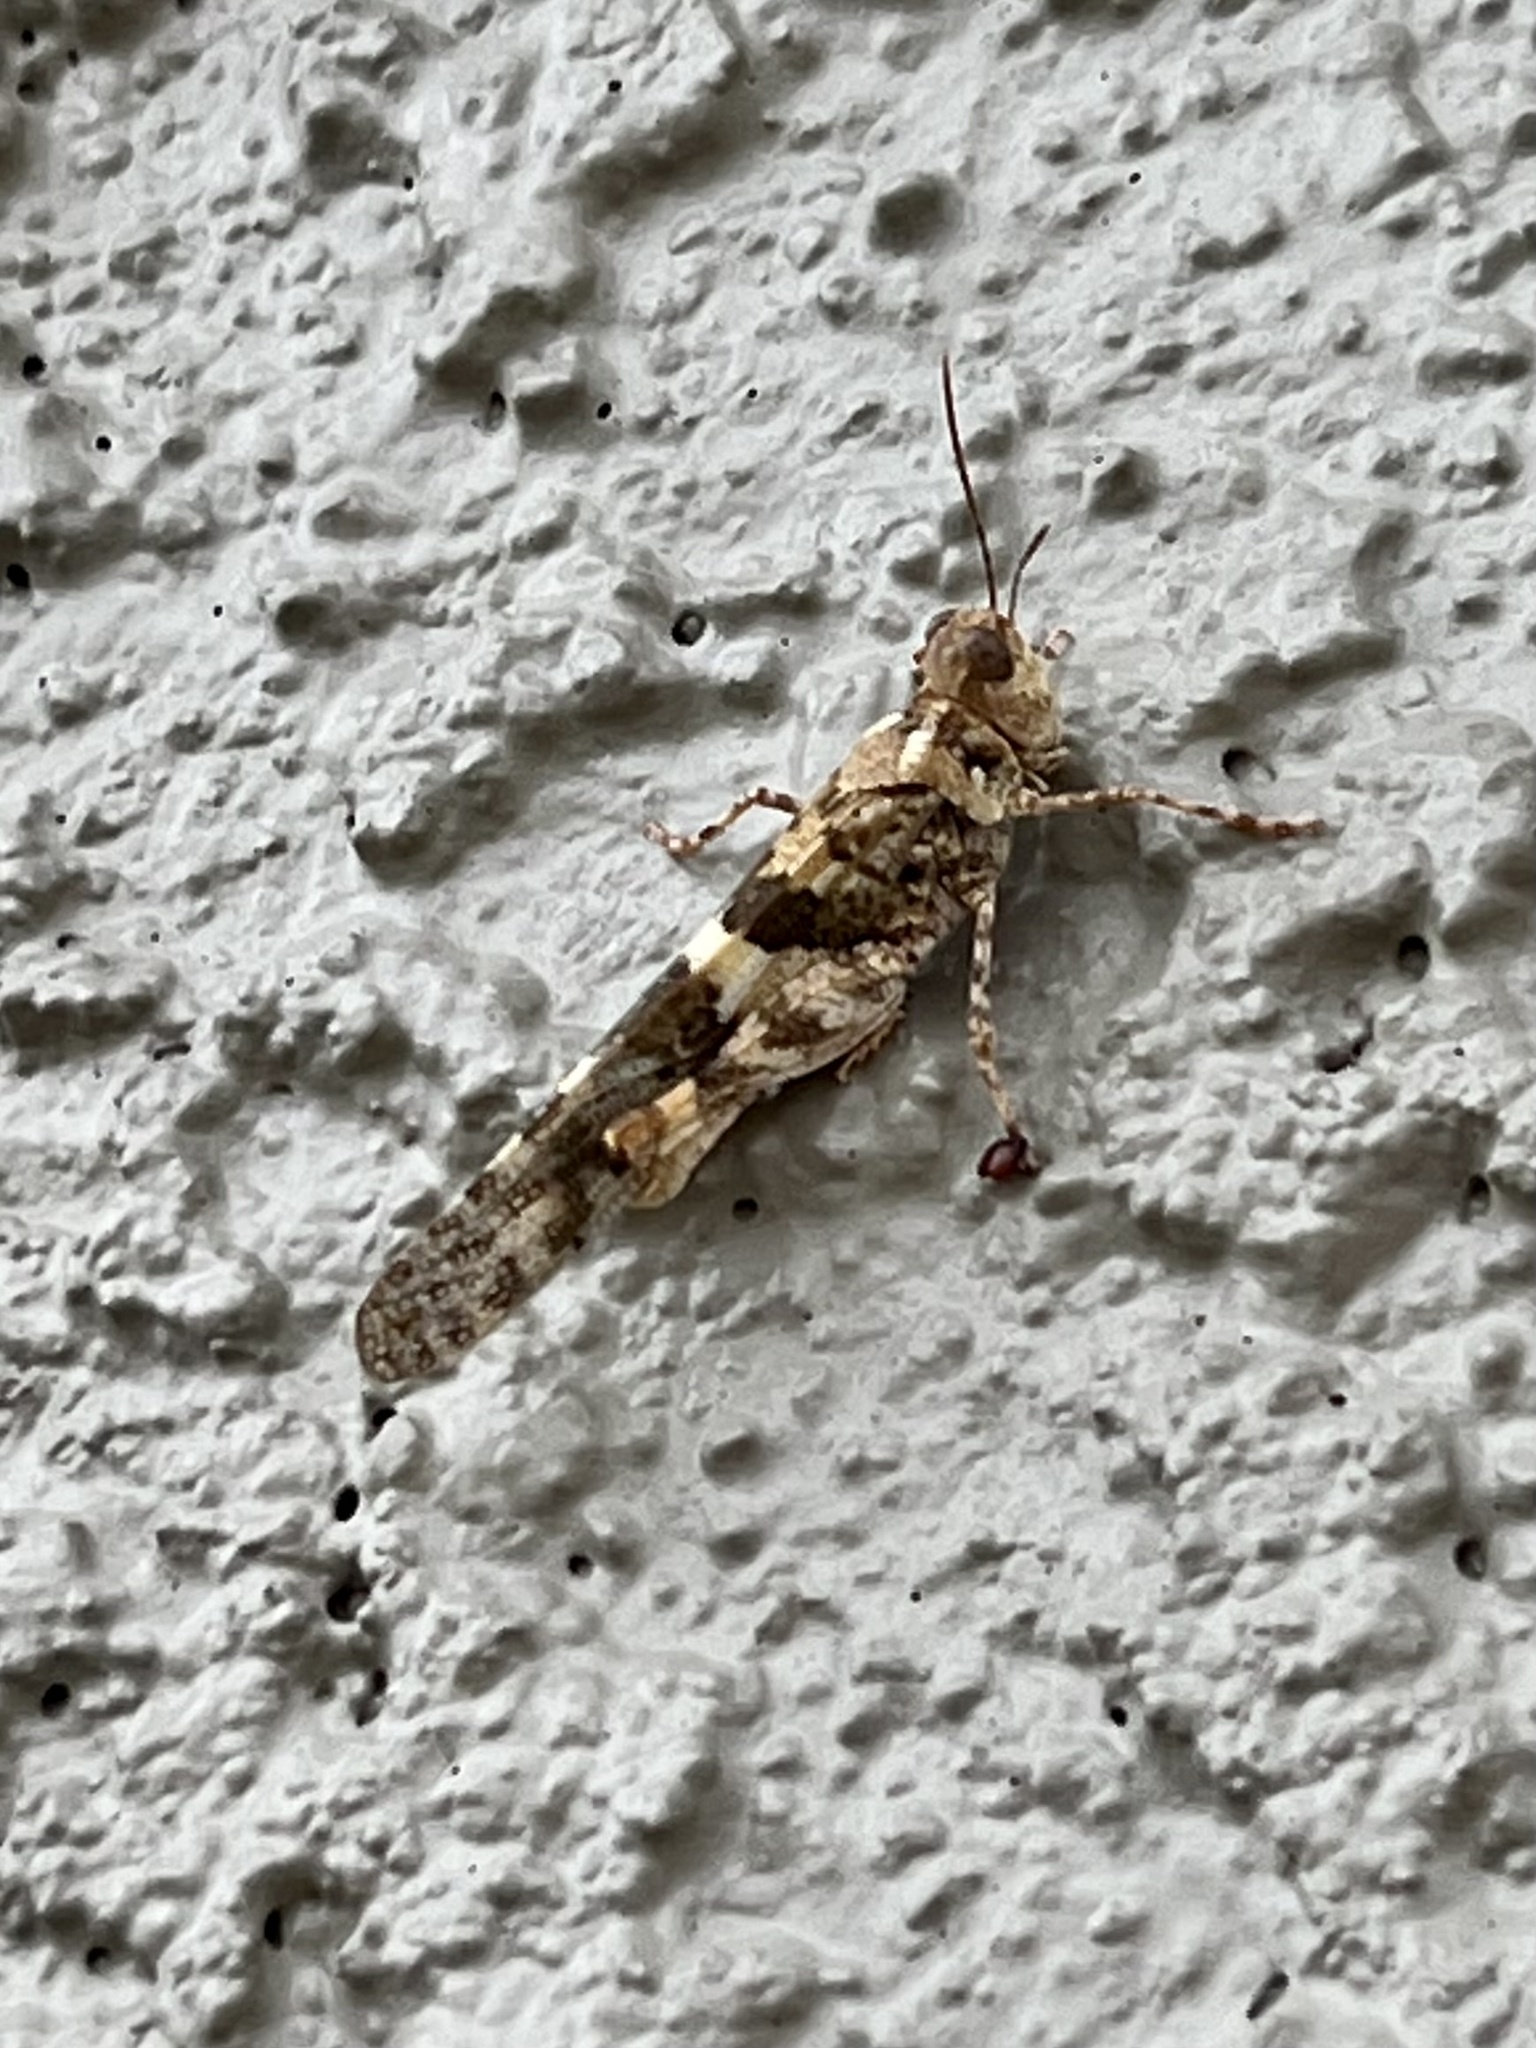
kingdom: Animalia
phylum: Arthropoda
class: Insecta
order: Orthoptera
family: Acrididae
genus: Trimerotropis
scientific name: Trimerotropis pallidipennis
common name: Pallid-winged grasshopper
